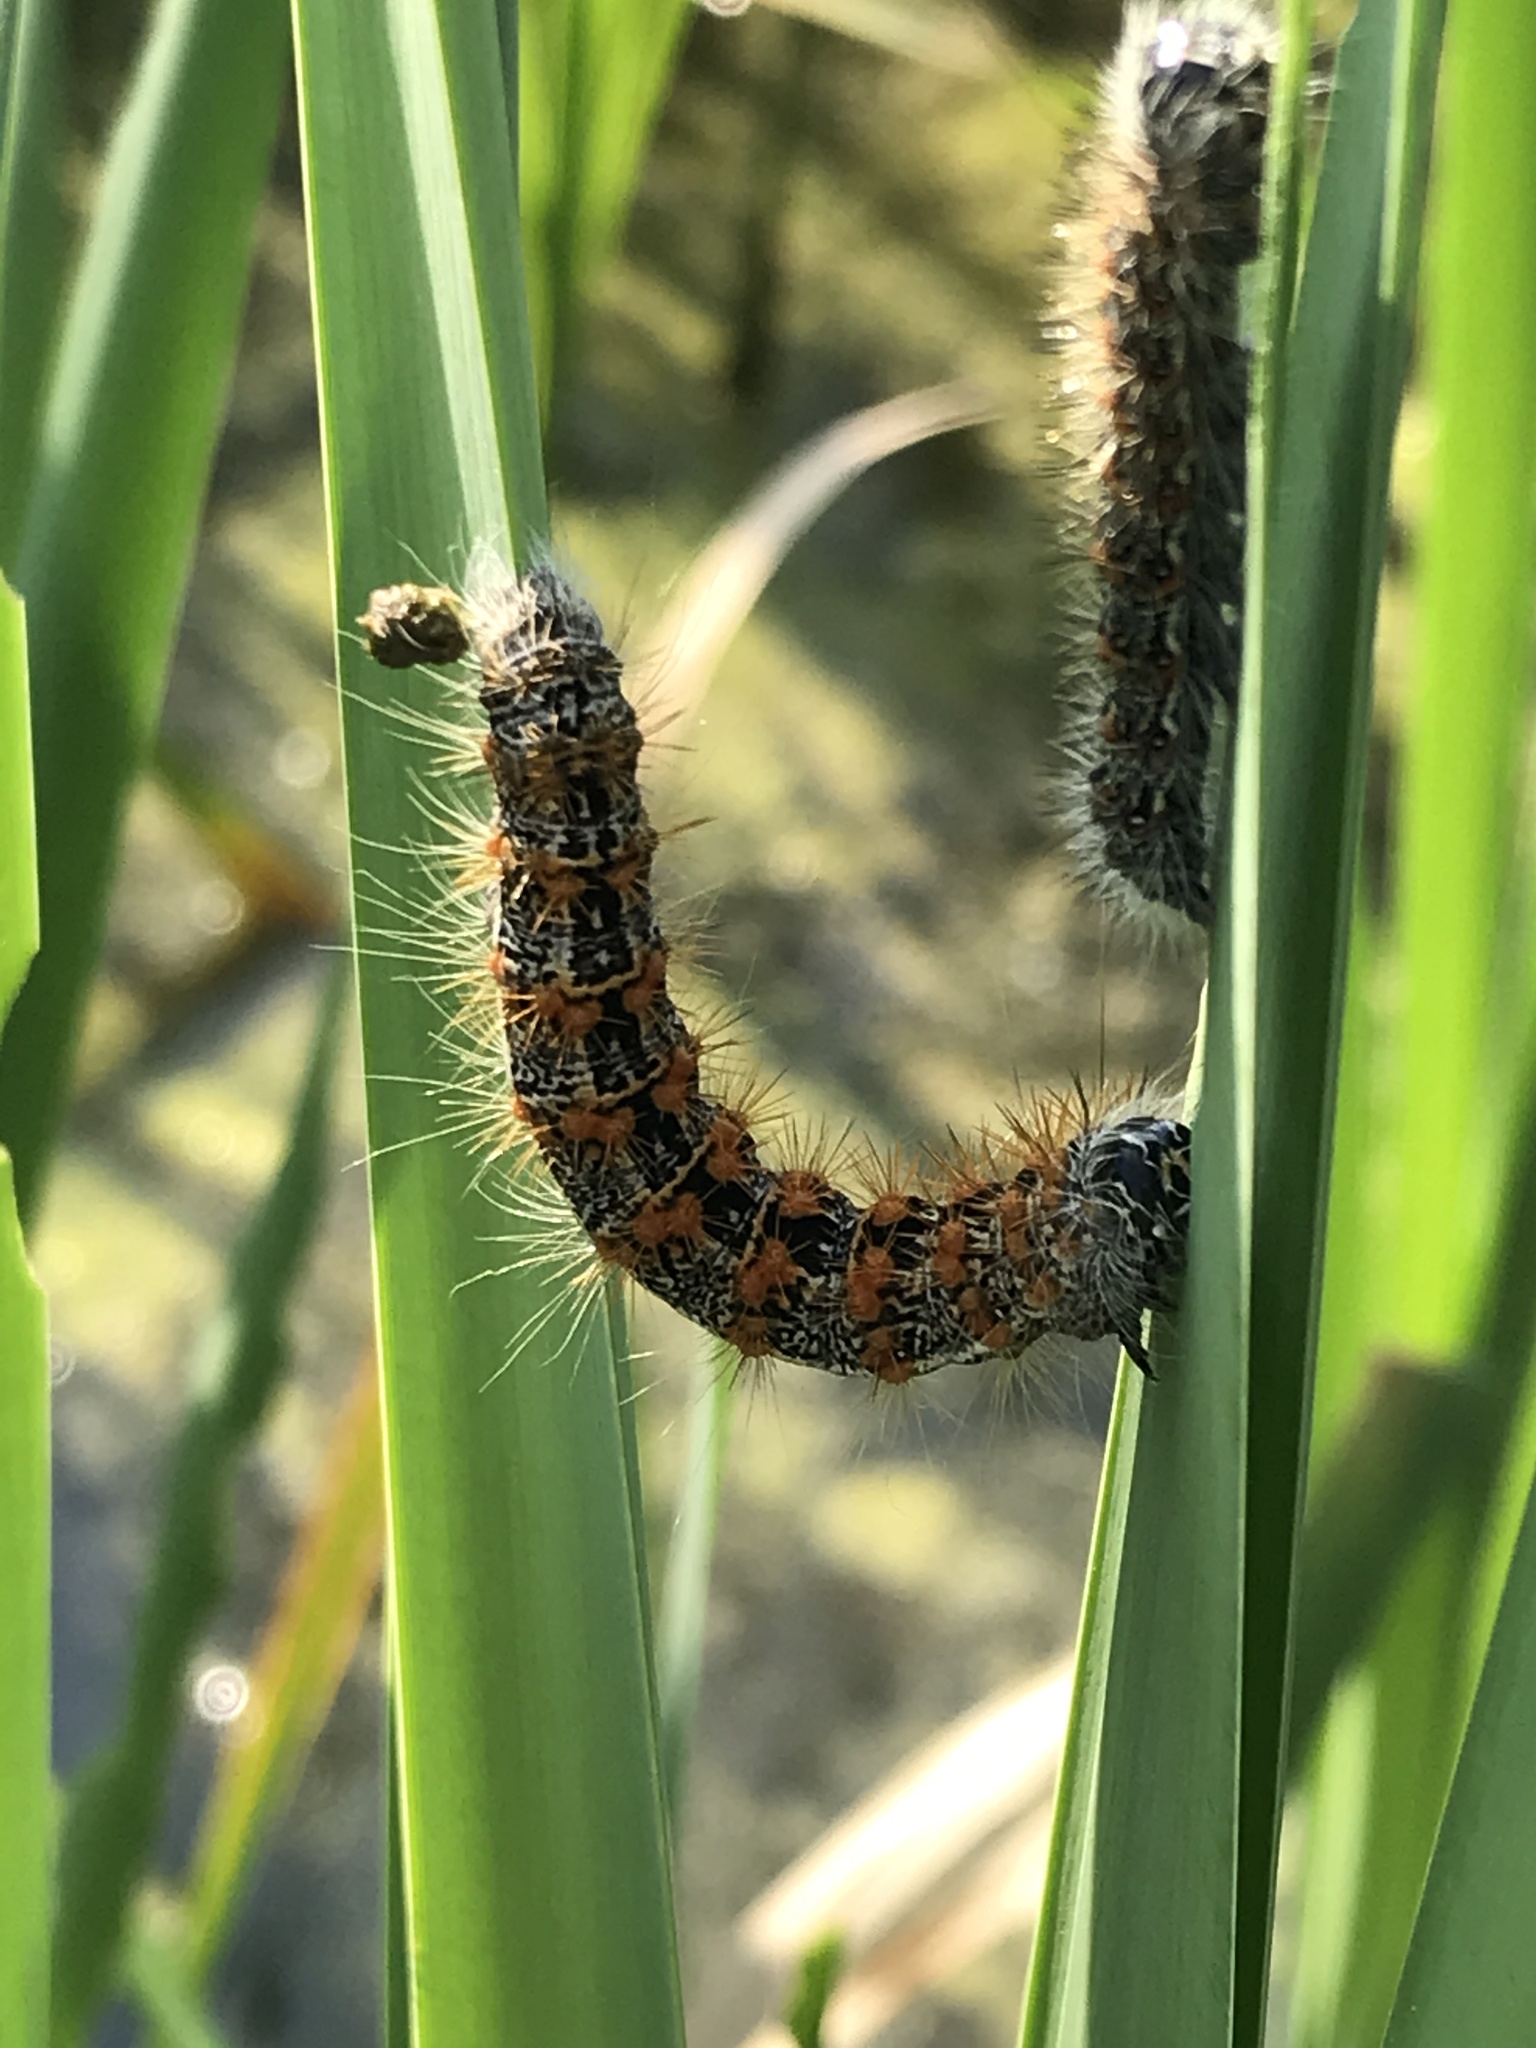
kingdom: Animalia
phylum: Arthropoda
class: Insecta
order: Lepidoptera
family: Noctuidae
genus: Acronicta
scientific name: Acronicta insularis
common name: Henry's marsh moth
